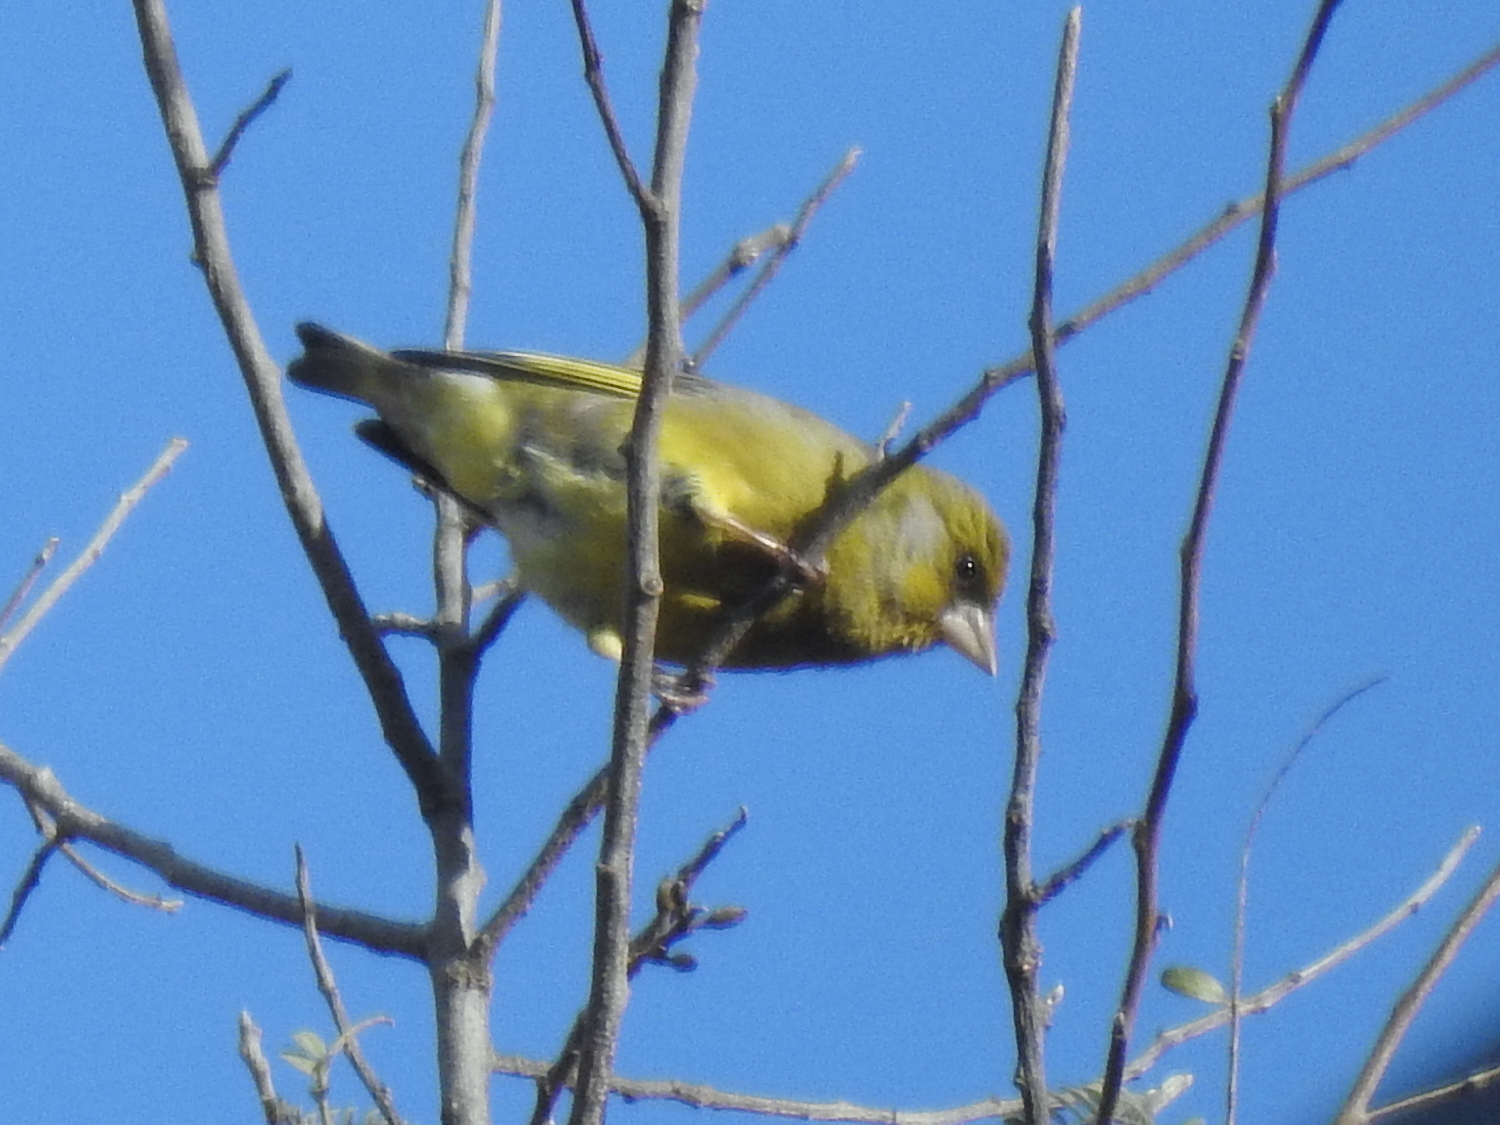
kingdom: Plantae
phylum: Tracheophyta
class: Liliopsida
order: Poales
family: Poaceae
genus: Chloris
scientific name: Chloris chloris
